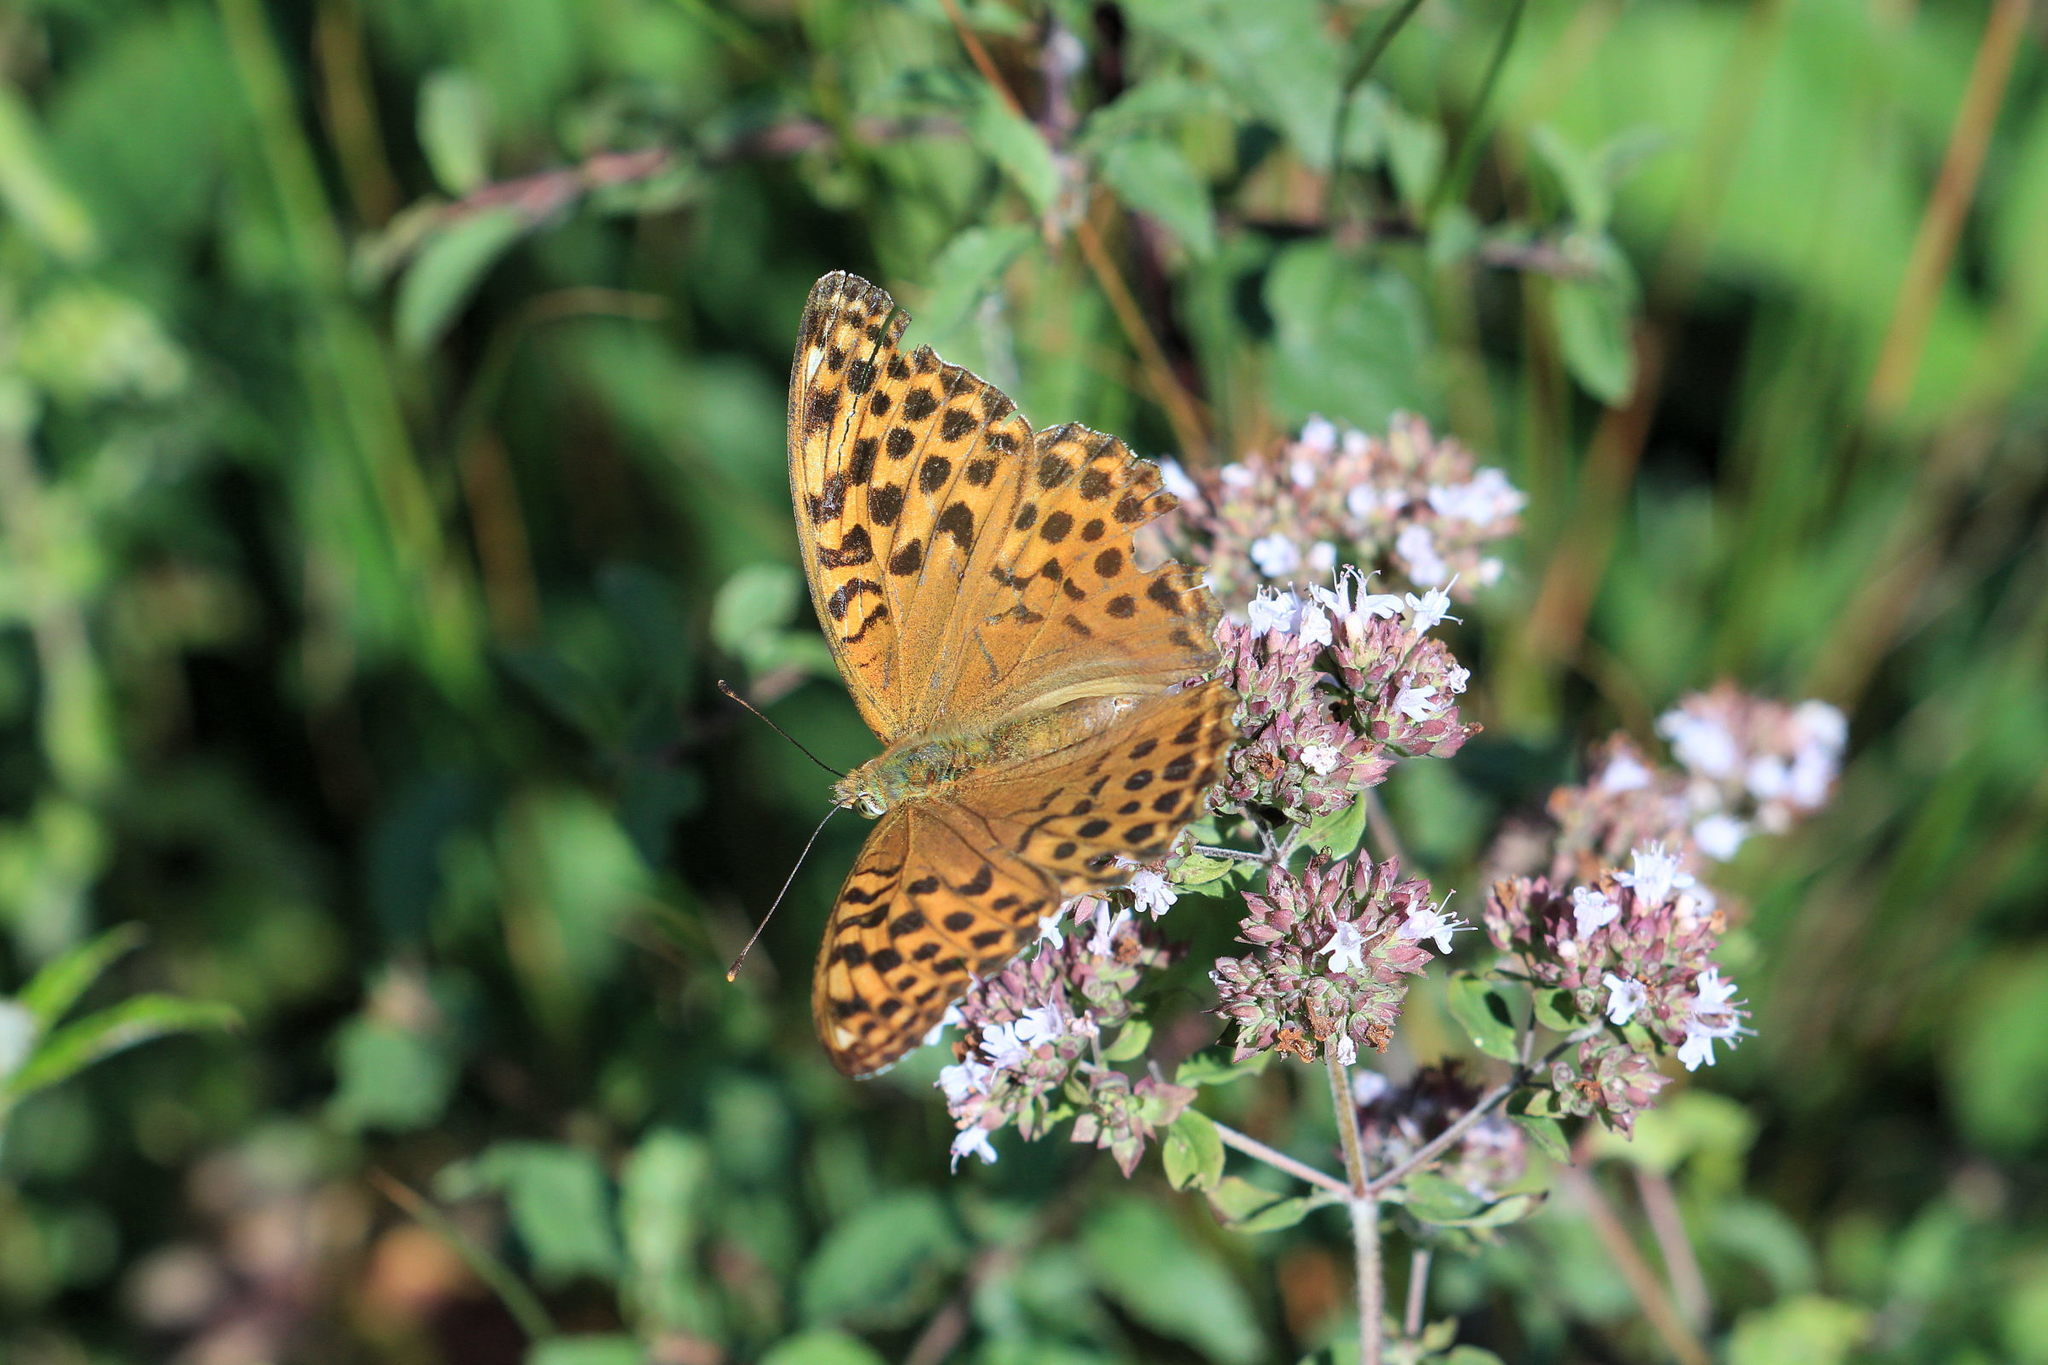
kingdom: Animalia
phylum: Arthropoda
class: Insecta
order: Lepidoptera
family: Nymphalidae
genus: Argynnis
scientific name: Argynnis paphia
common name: Silver-washed fritillary
